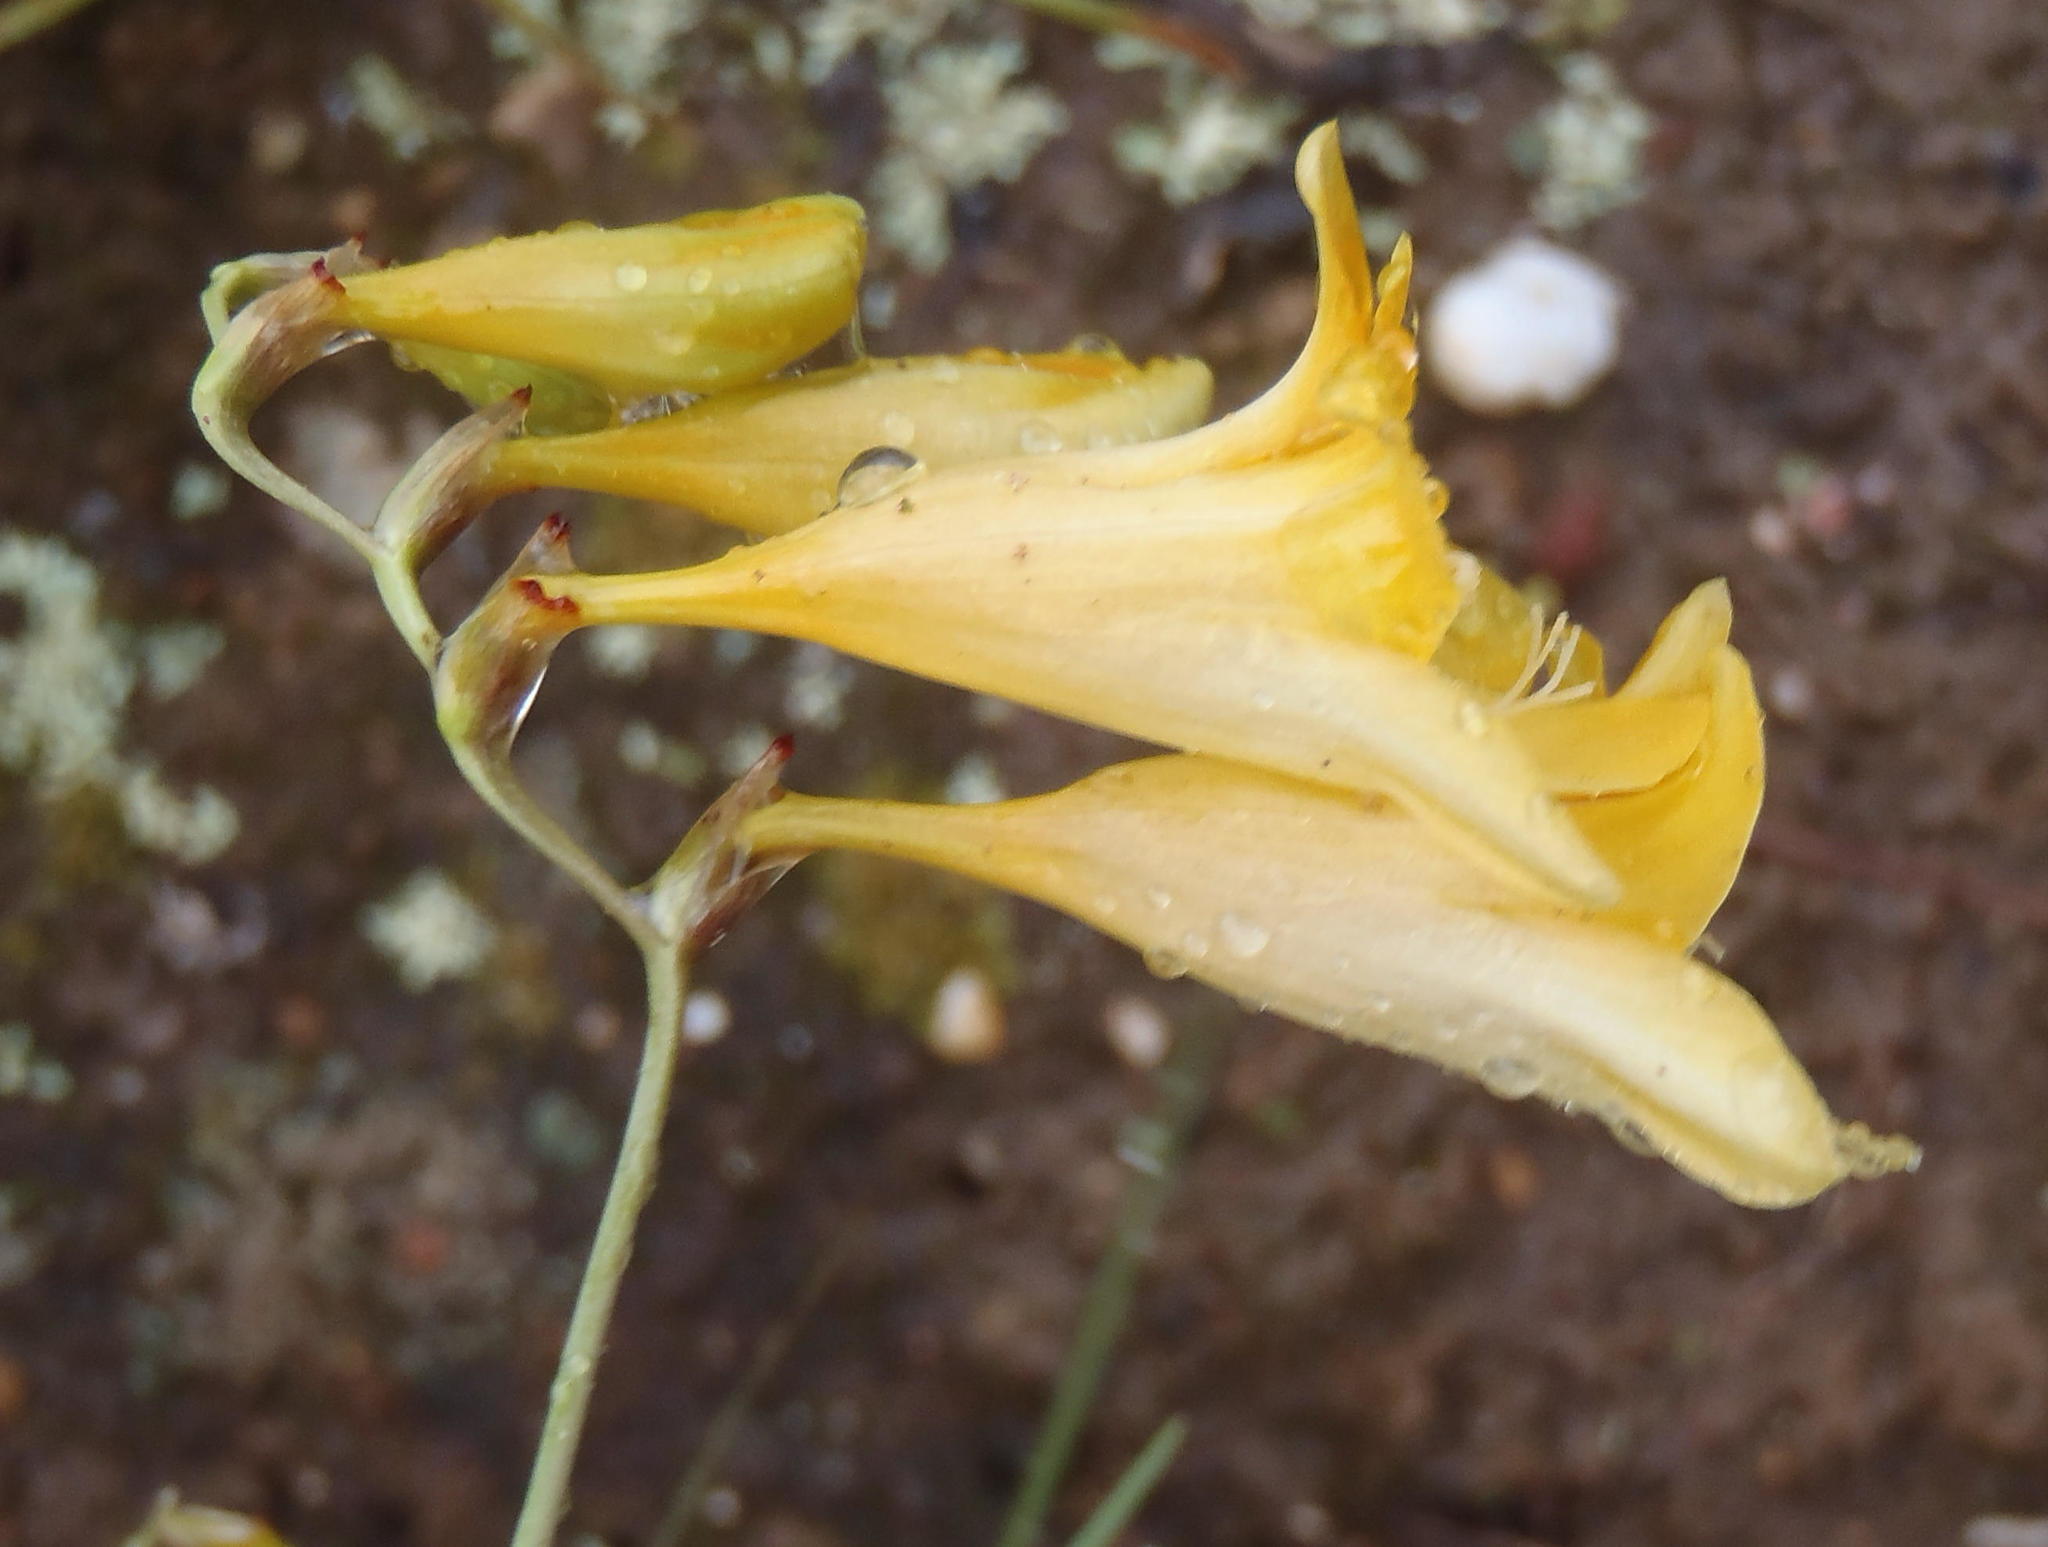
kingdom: Plantae
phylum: Tracheophyta
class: Liliopsida
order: Asparagales
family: Iridaceae
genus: Freesia
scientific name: Freesia corymbosa
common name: Common freesia
